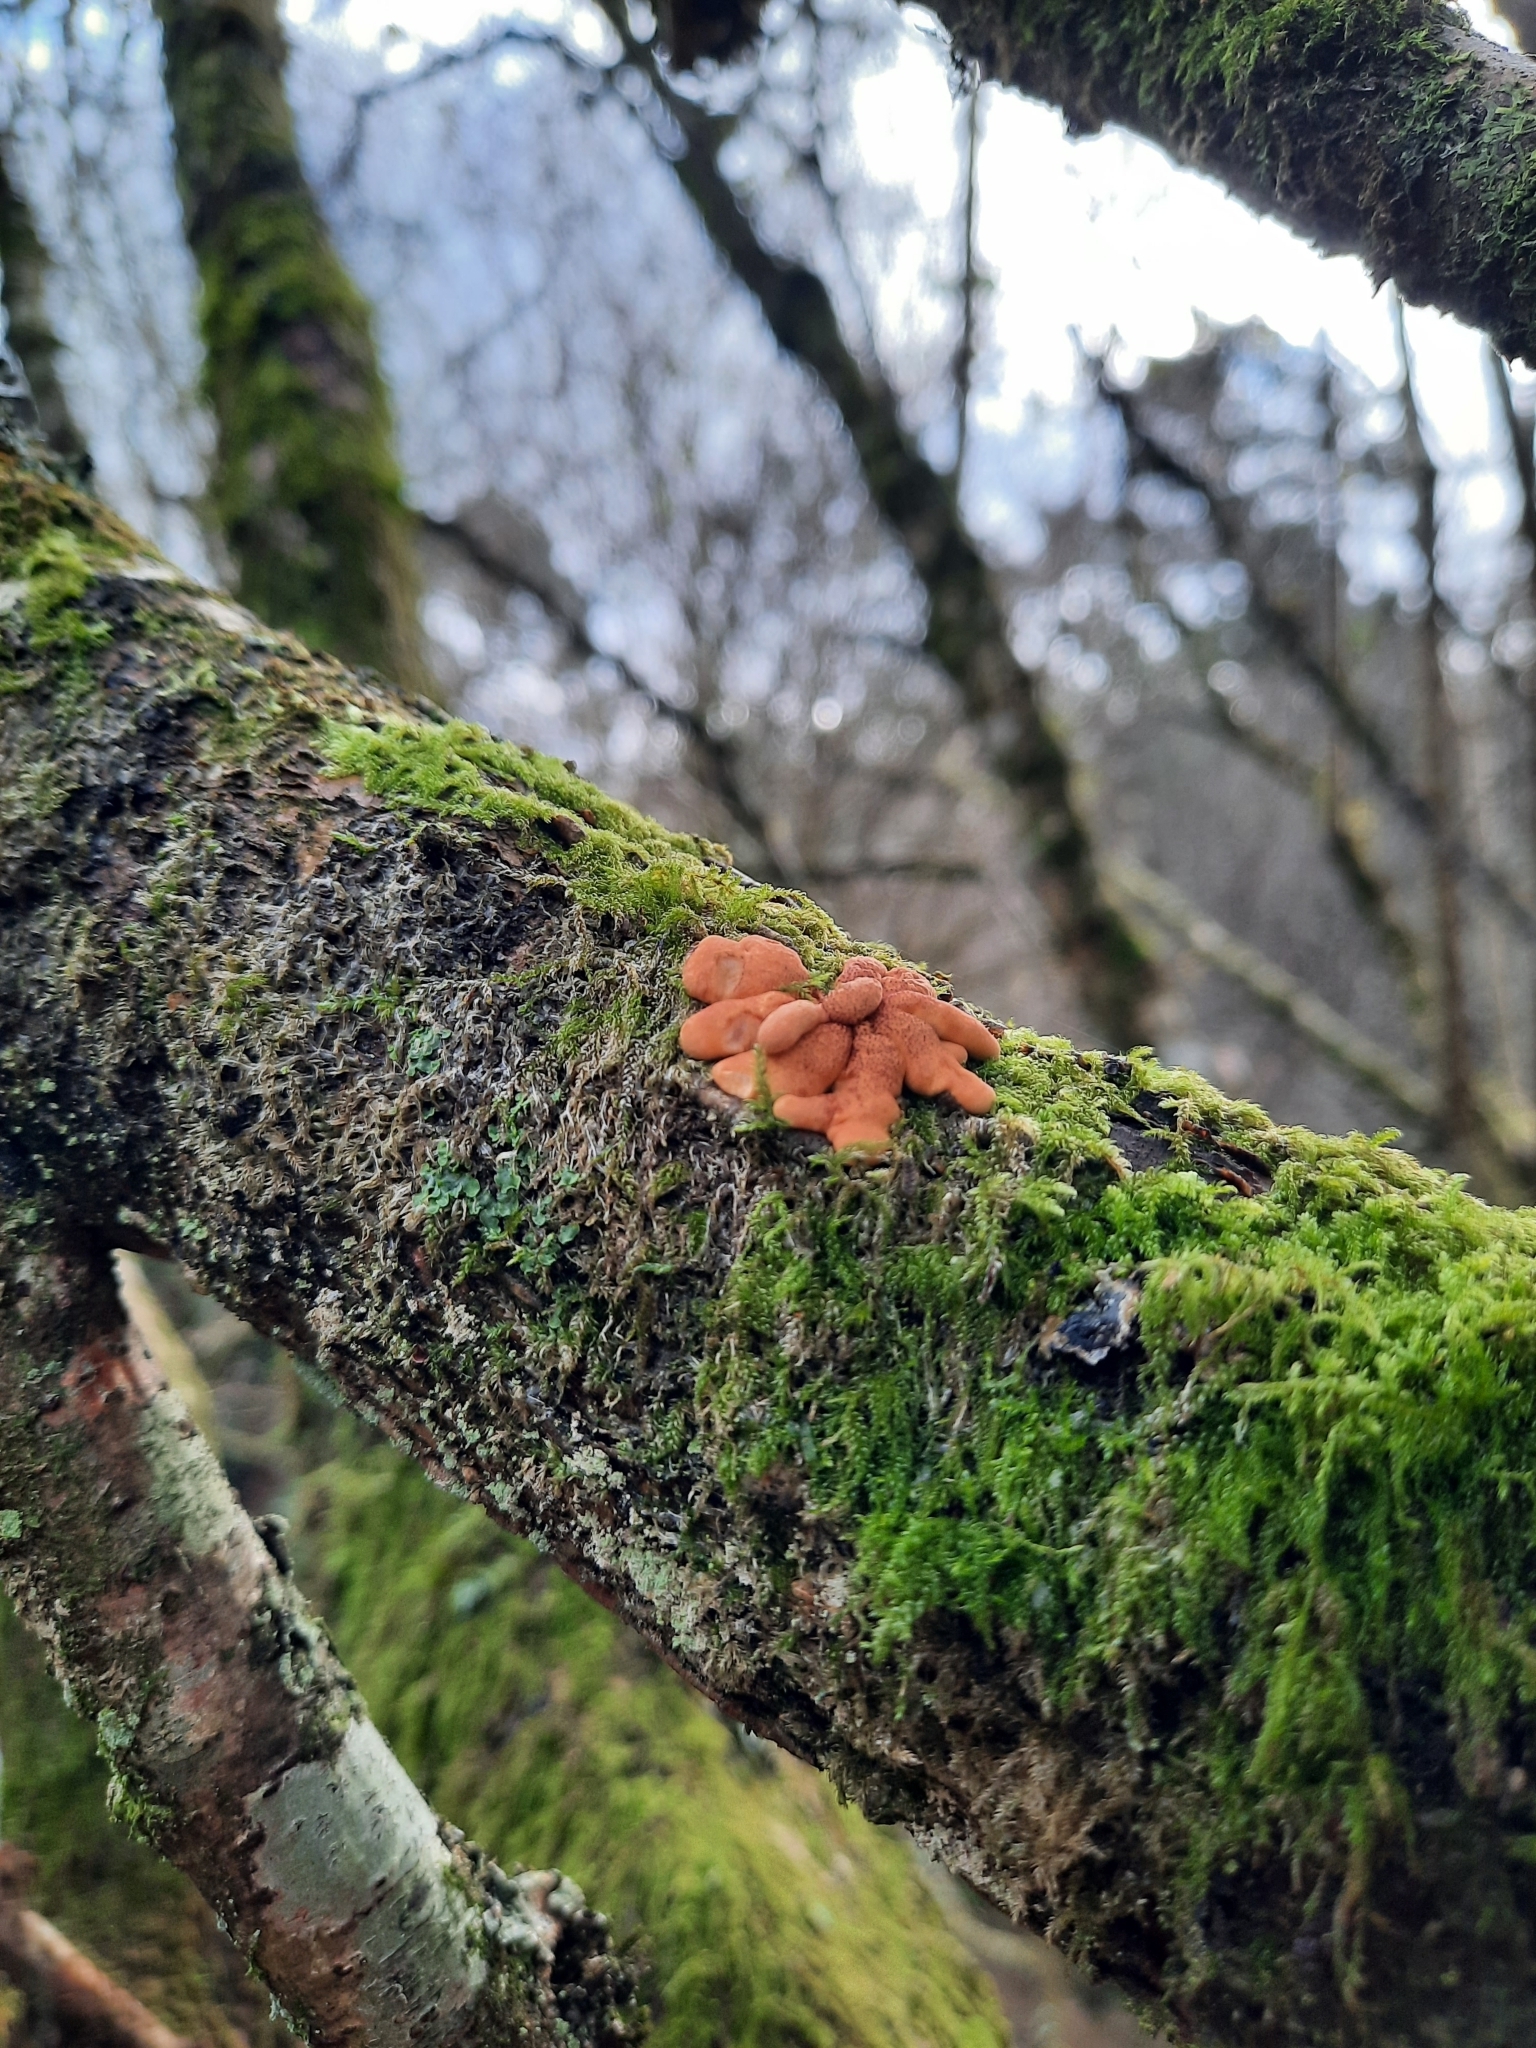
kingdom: Fungi
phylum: Ascomycota
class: Sordariomycetes
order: Hypocreales
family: Hypocreaceae
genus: Hypocreopsis
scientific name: Hypocreopsis rhododendri
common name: Hazel gloves
